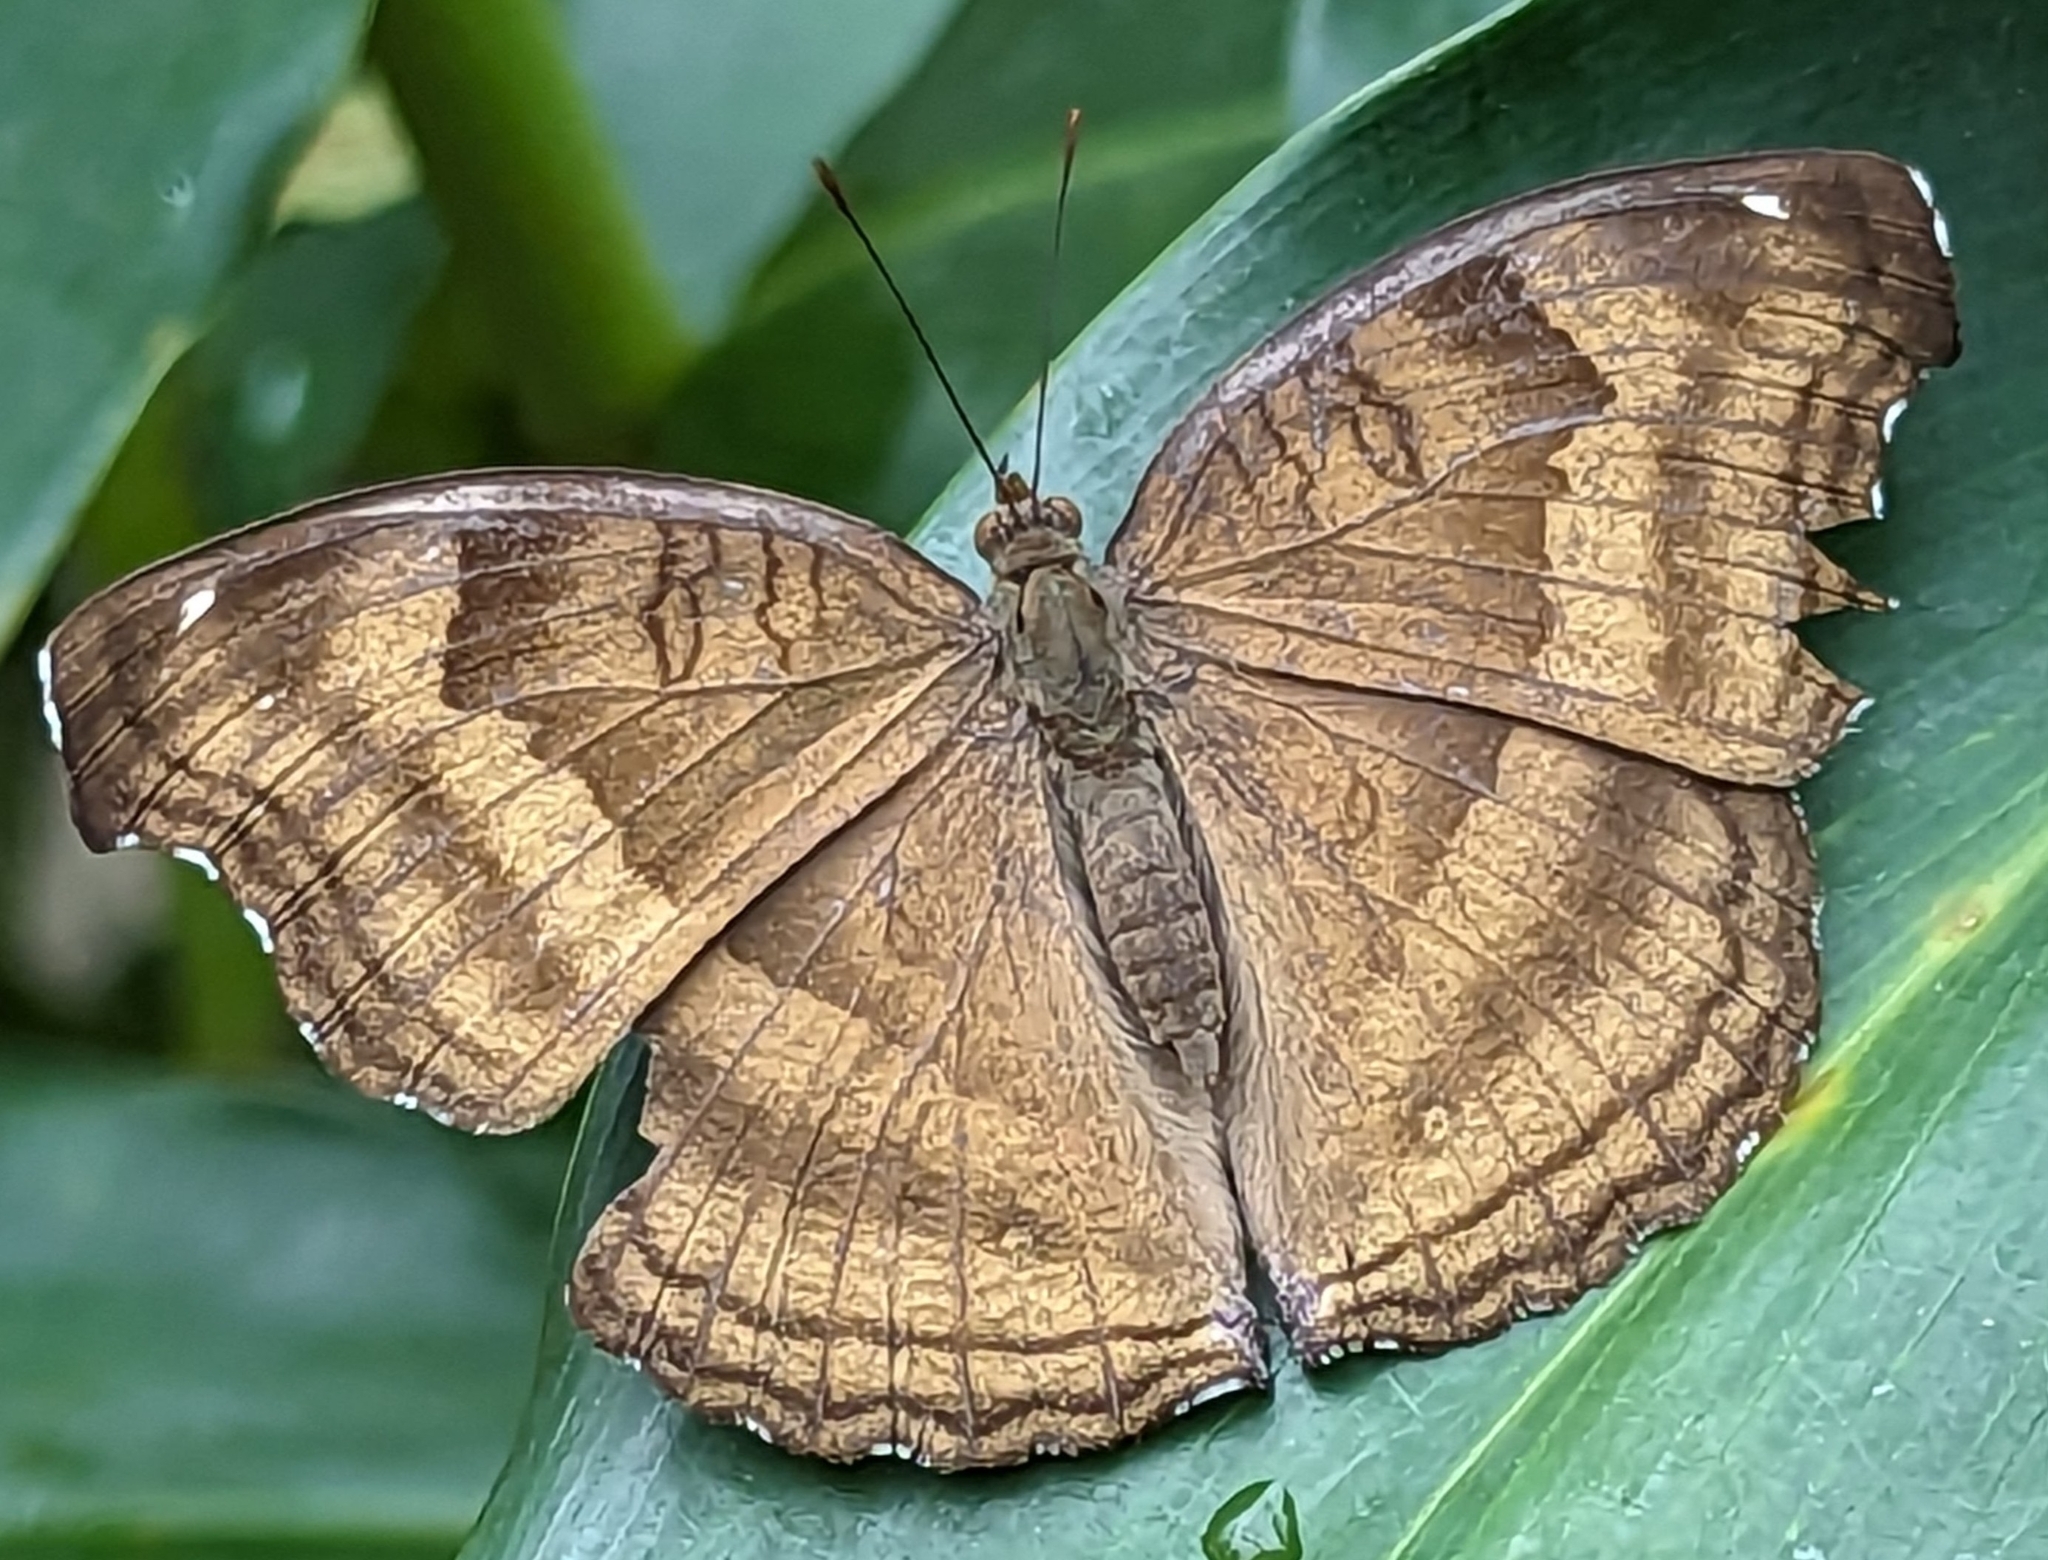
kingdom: Animalia
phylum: Arthropoda
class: Insecta
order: Lepidoptera
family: Nymphalidae
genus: Junonia
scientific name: Junonia iphita
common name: Chocolate pansy
